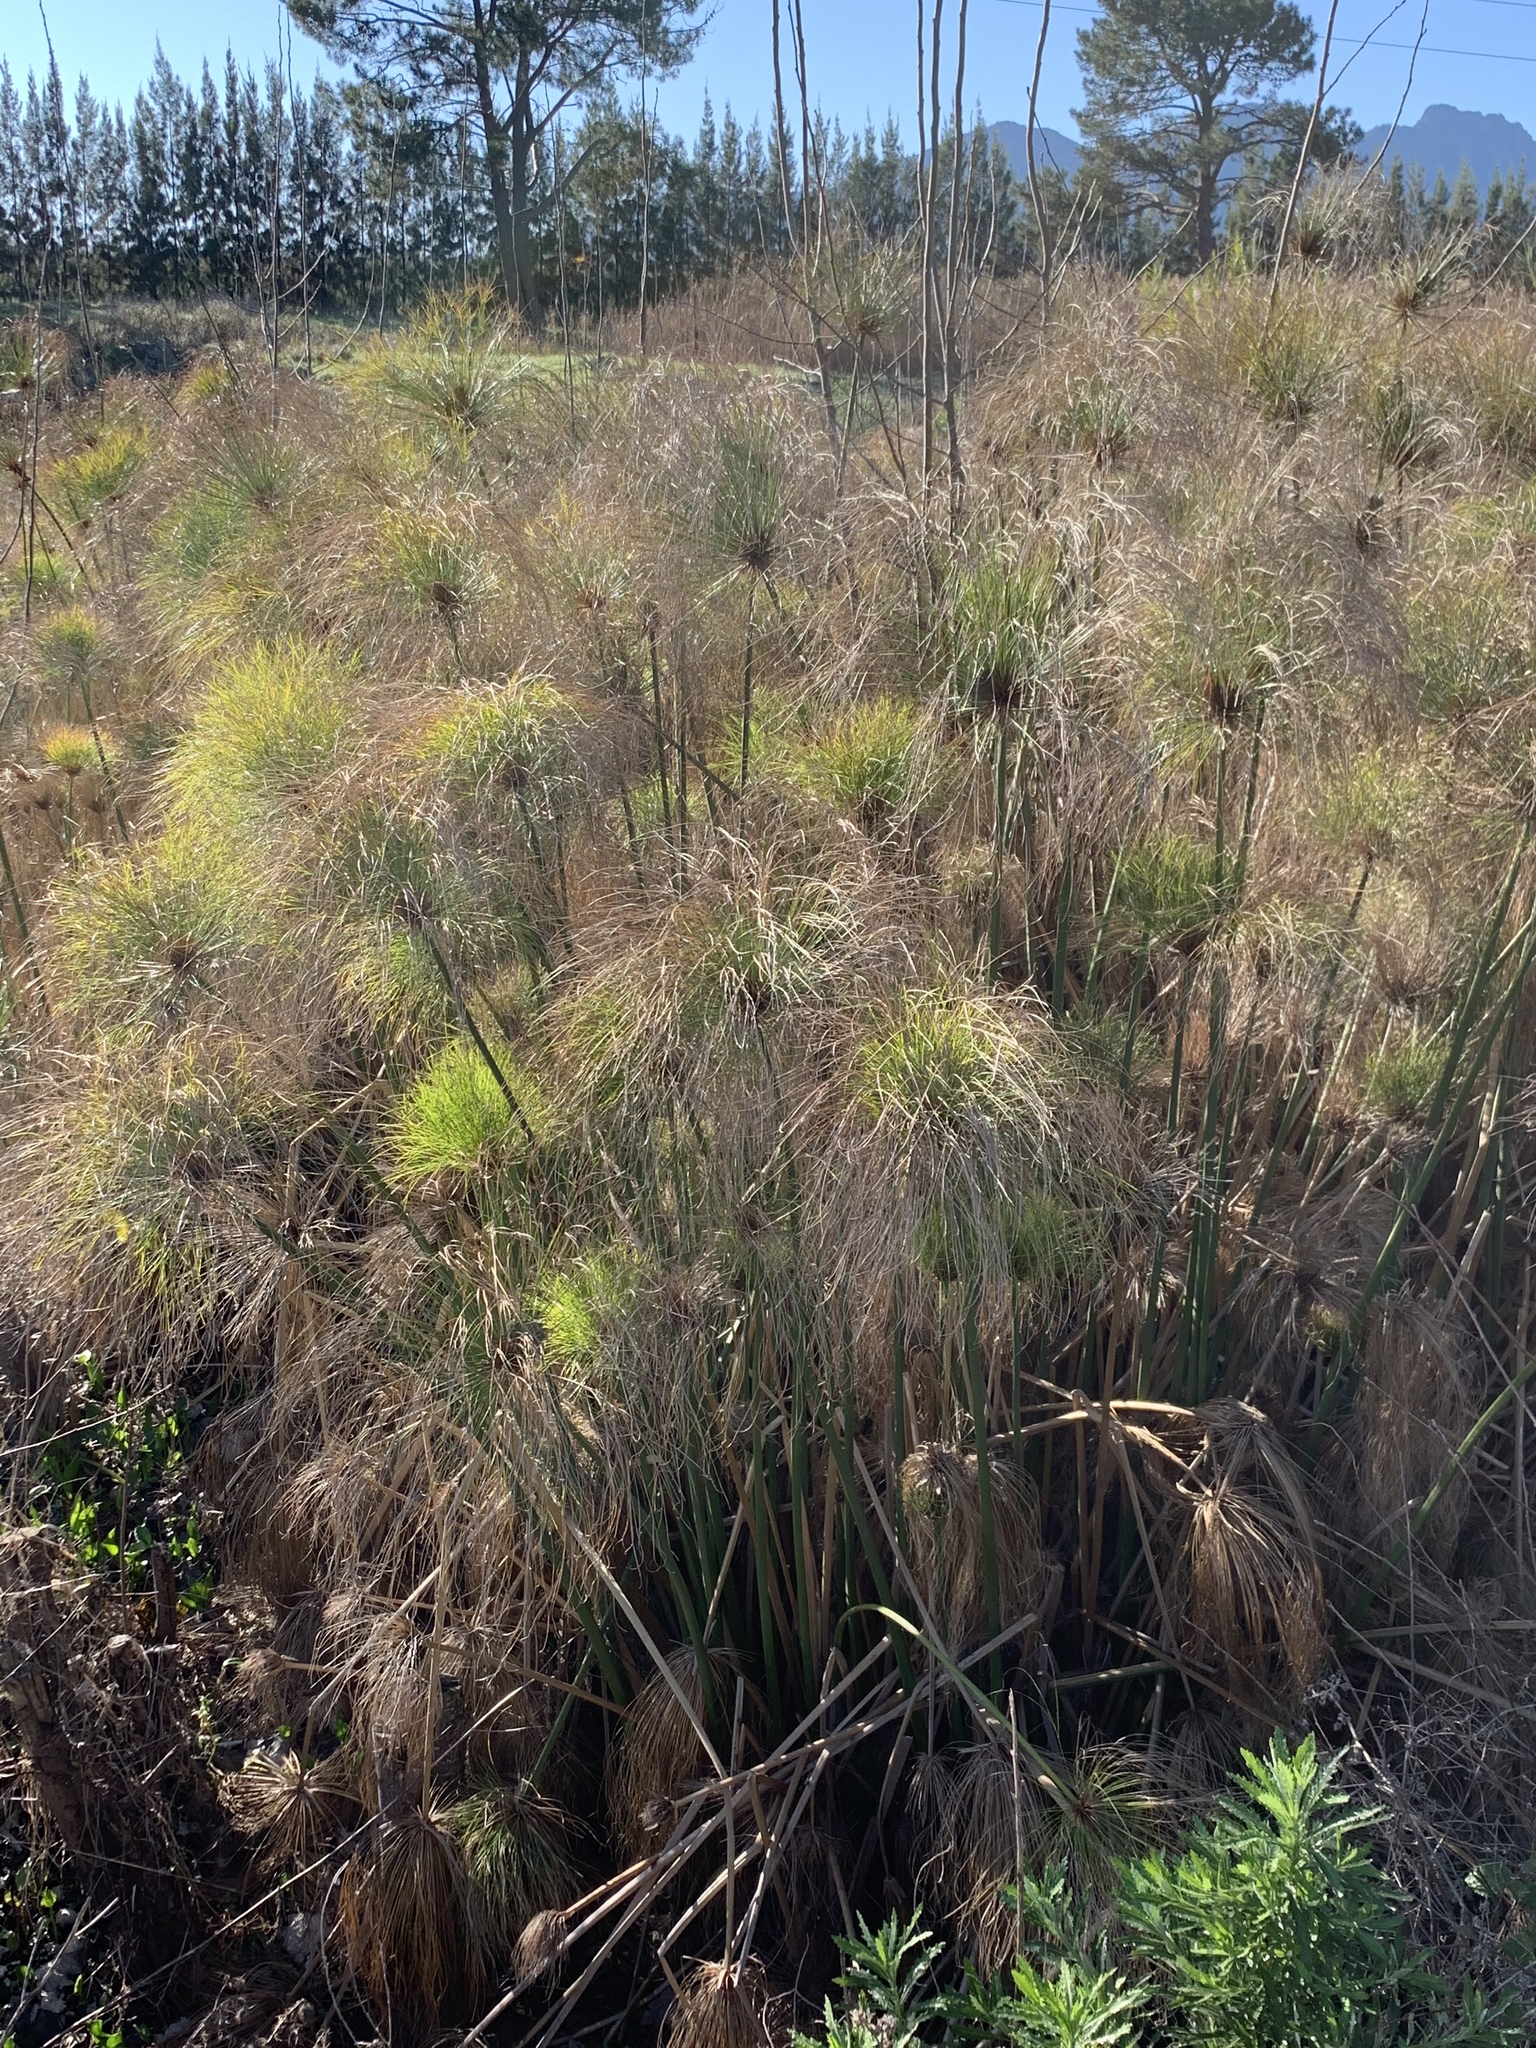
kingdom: Plantae
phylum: Tracheophyta
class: Liliopsida
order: Poales
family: Cyperaceae
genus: Cyperus
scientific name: Cyperus papyrus
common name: Papyrus
